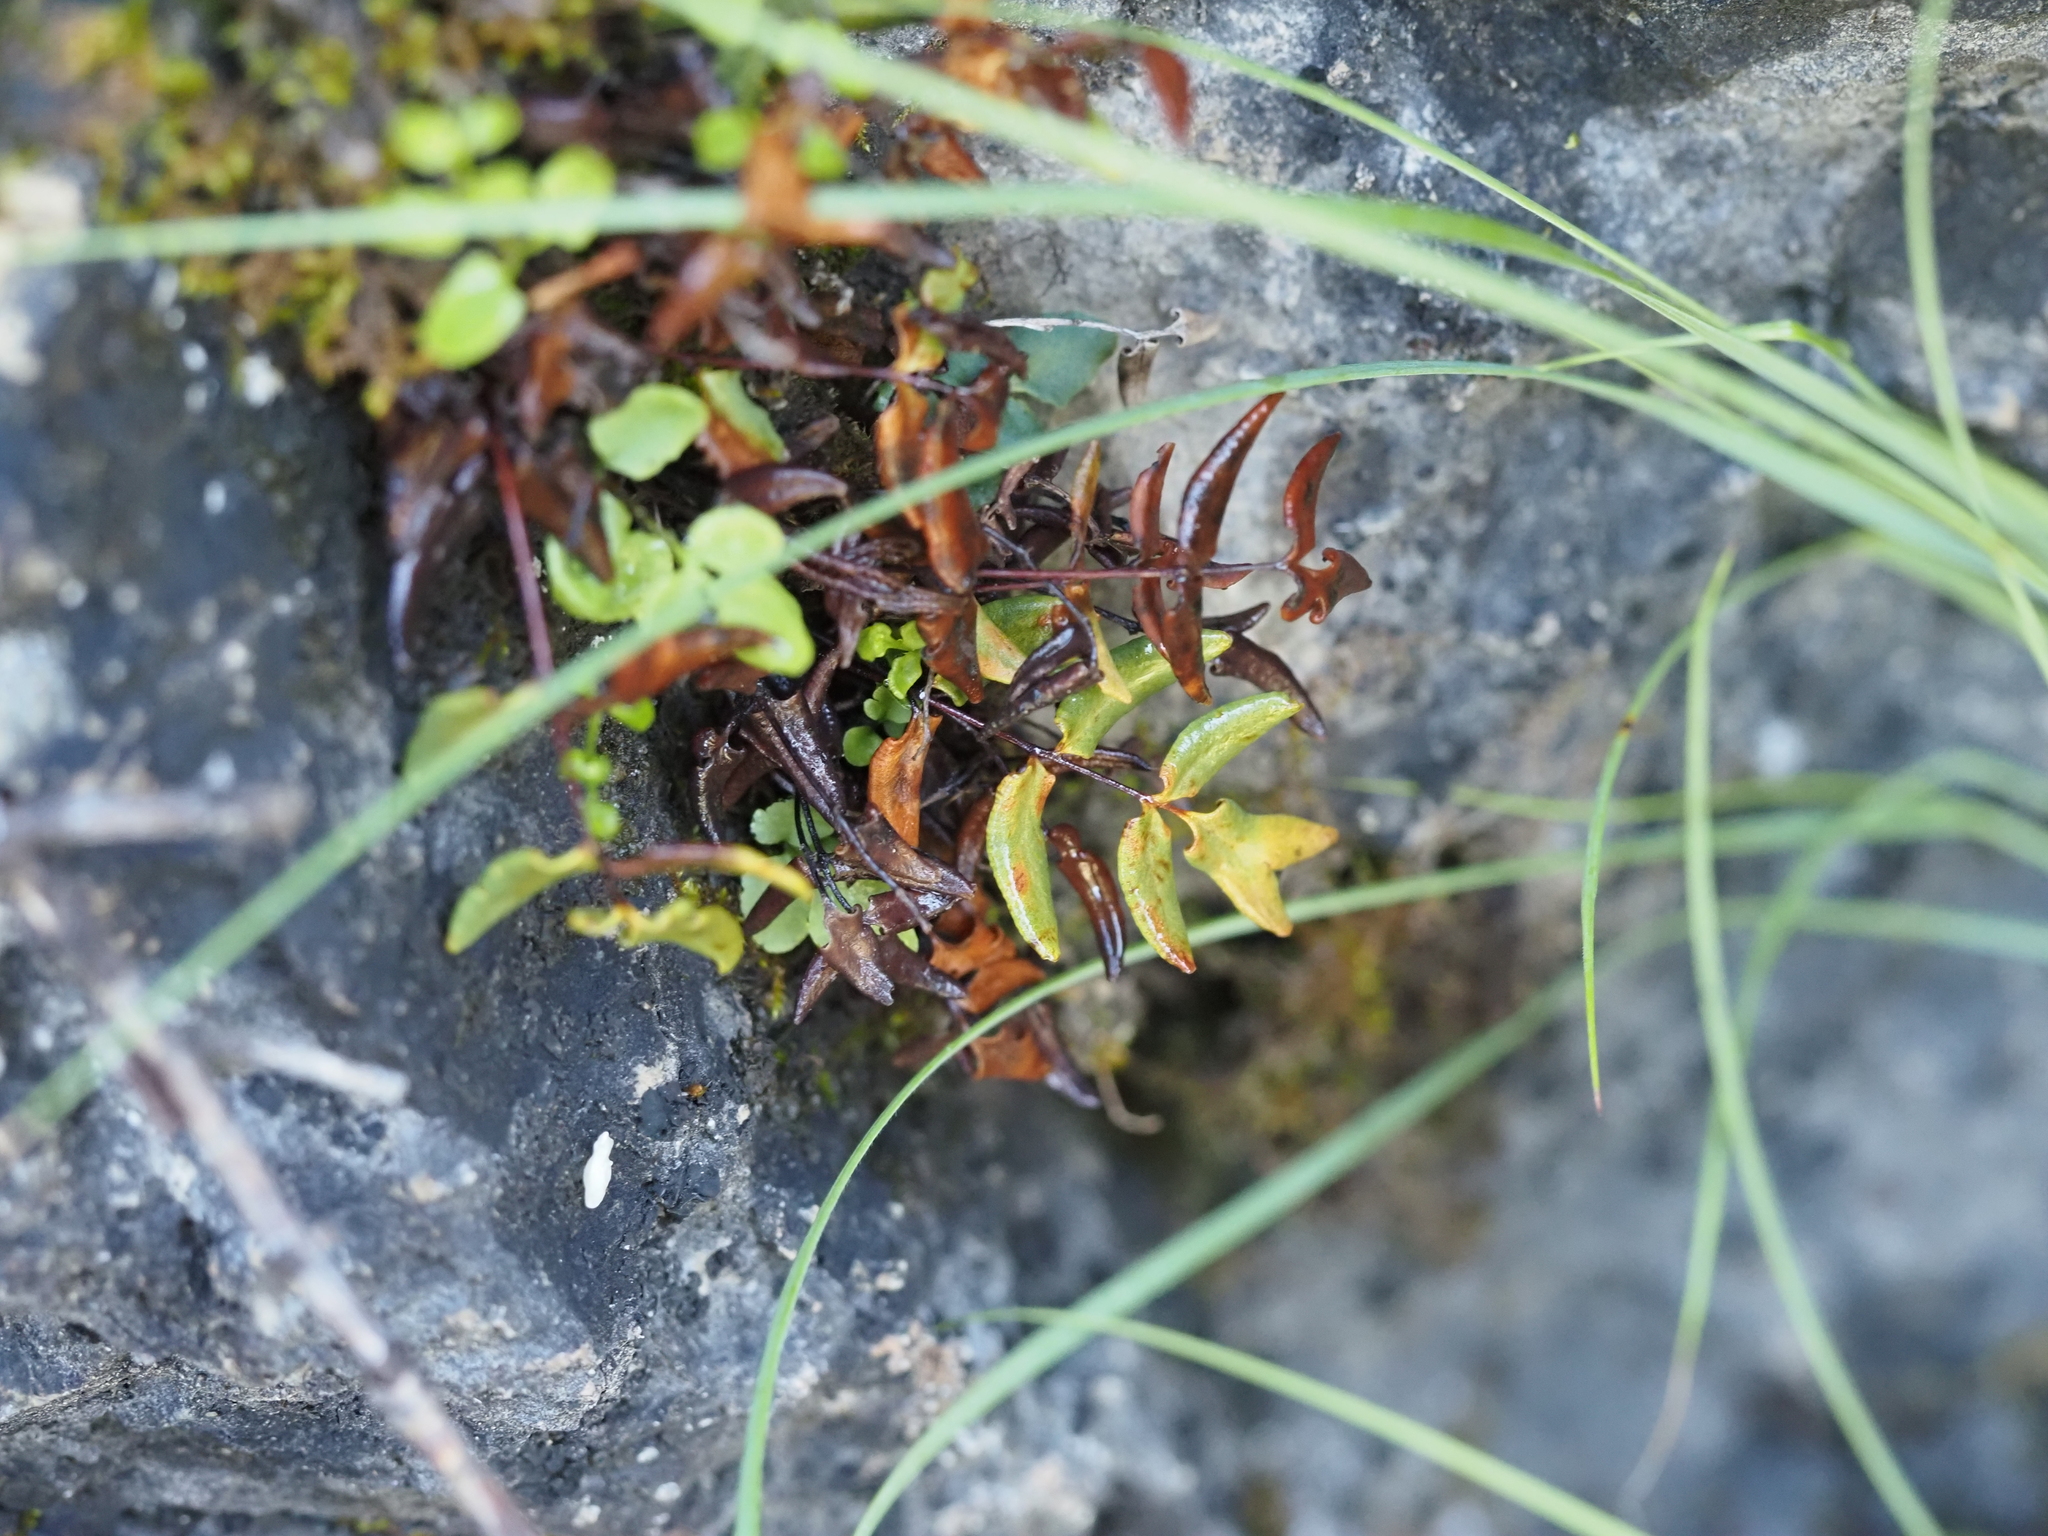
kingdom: Plantae
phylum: Tracheophyta
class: Polypodiopsida
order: Polypodiales
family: Pteridaceae
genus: Pellaea
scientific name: Pellaea glabella
